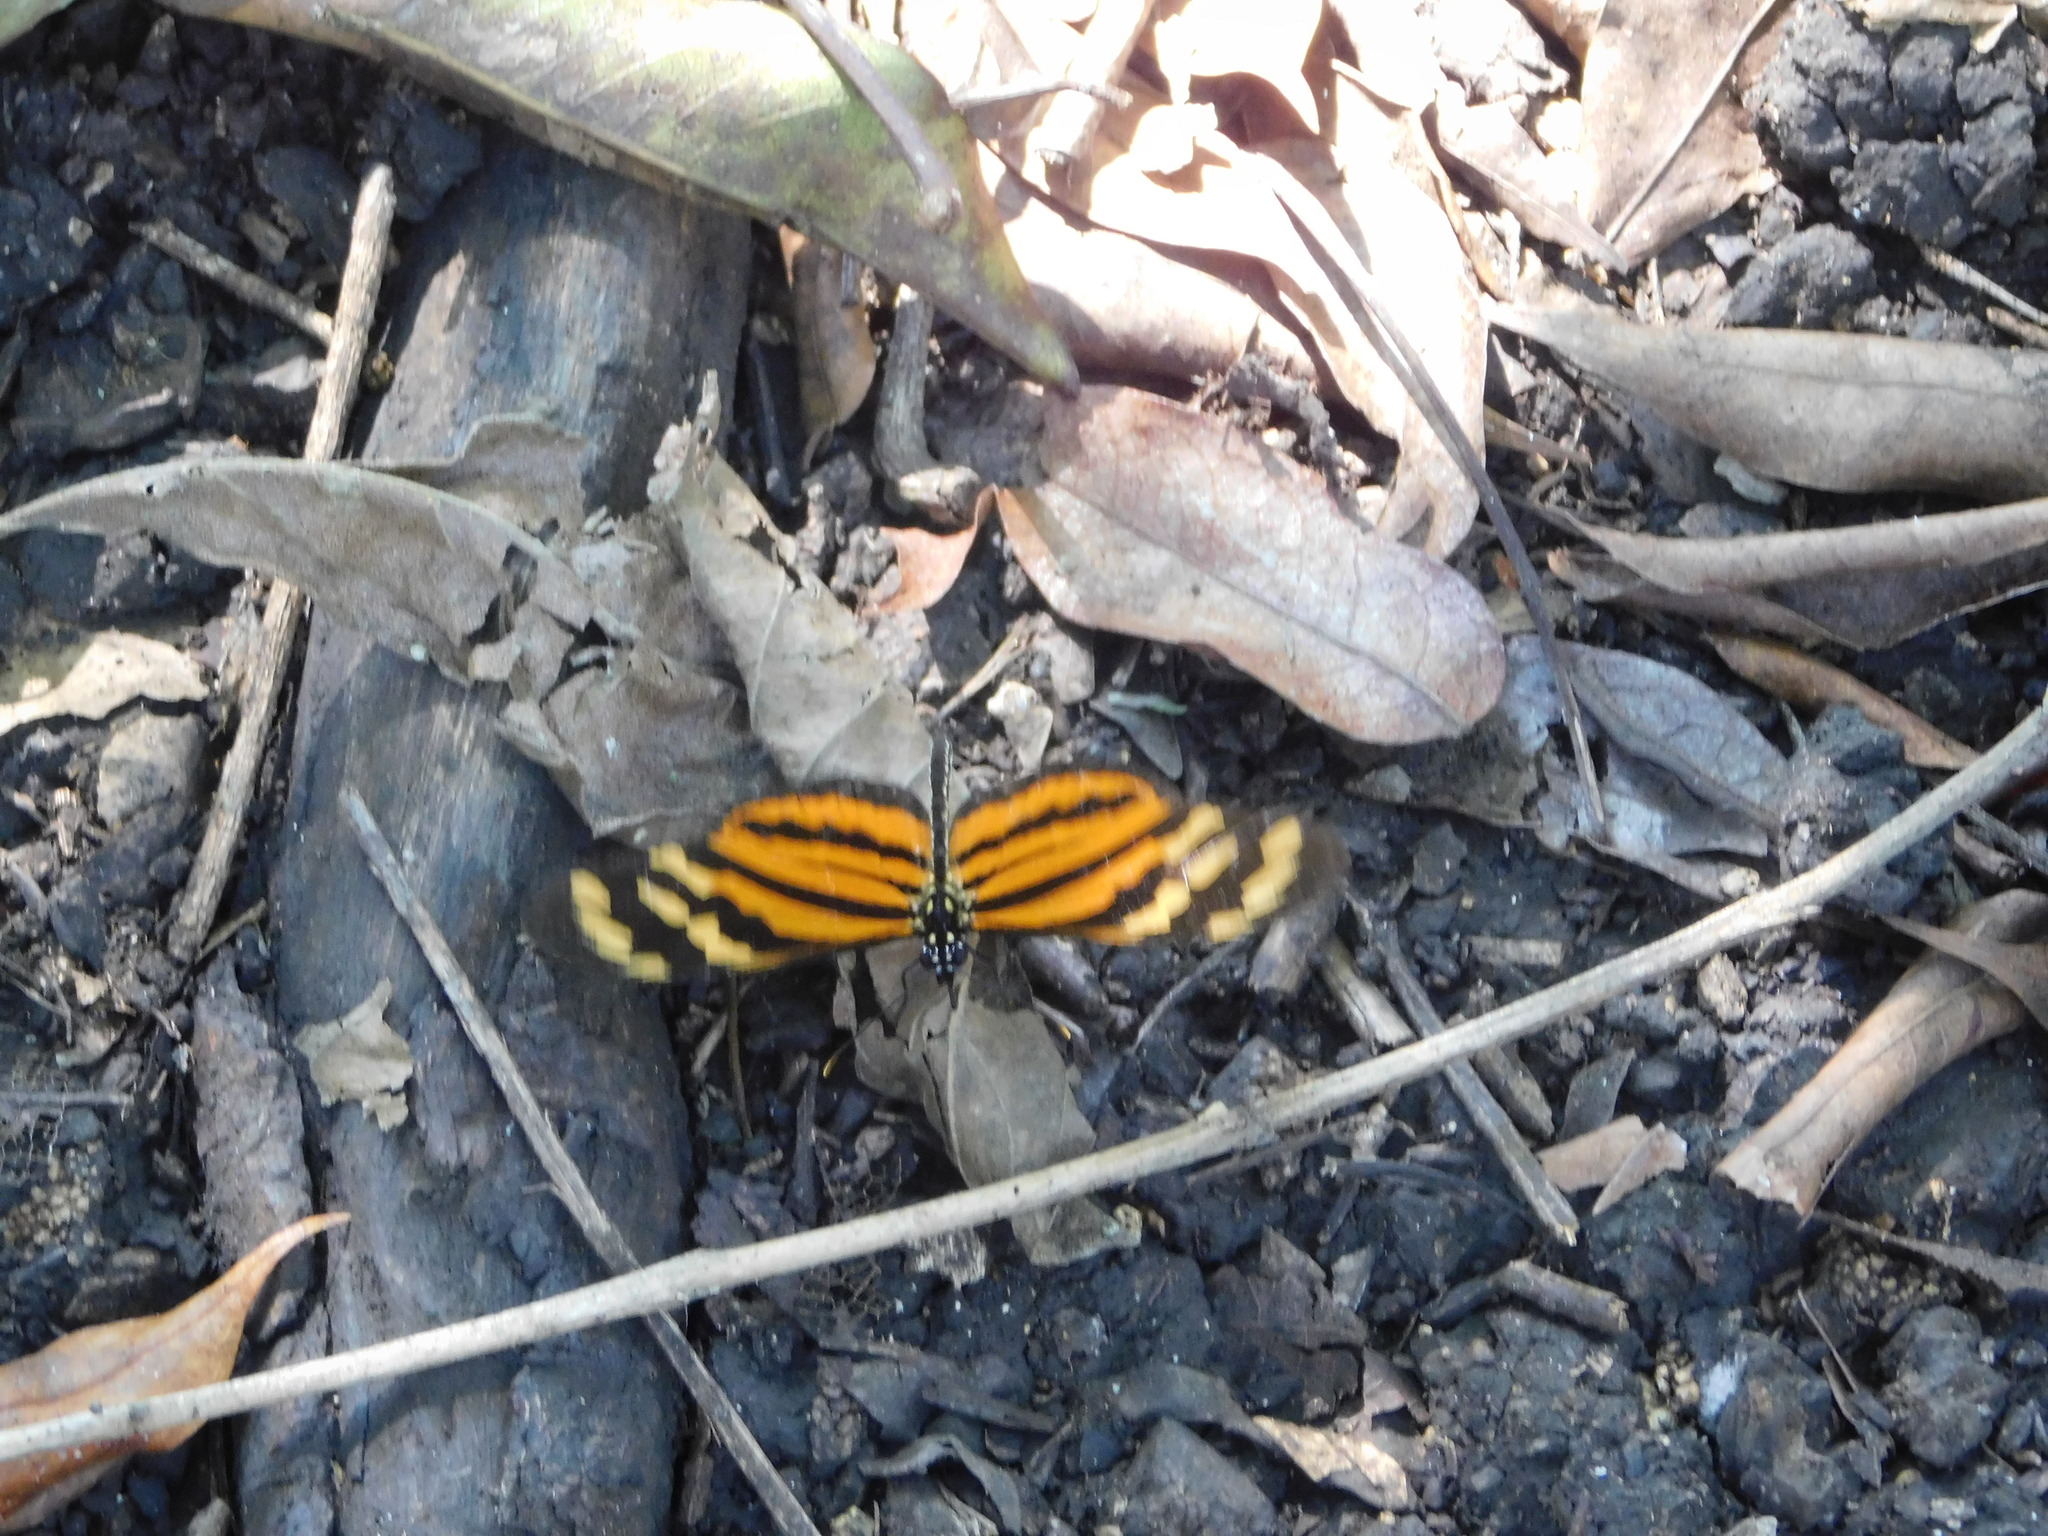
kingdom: Animalia
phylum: Arthropoda
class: Insecta
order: Lepidoptera
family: Nymphalidae
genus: Lycorea
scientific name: Lycorea eva
